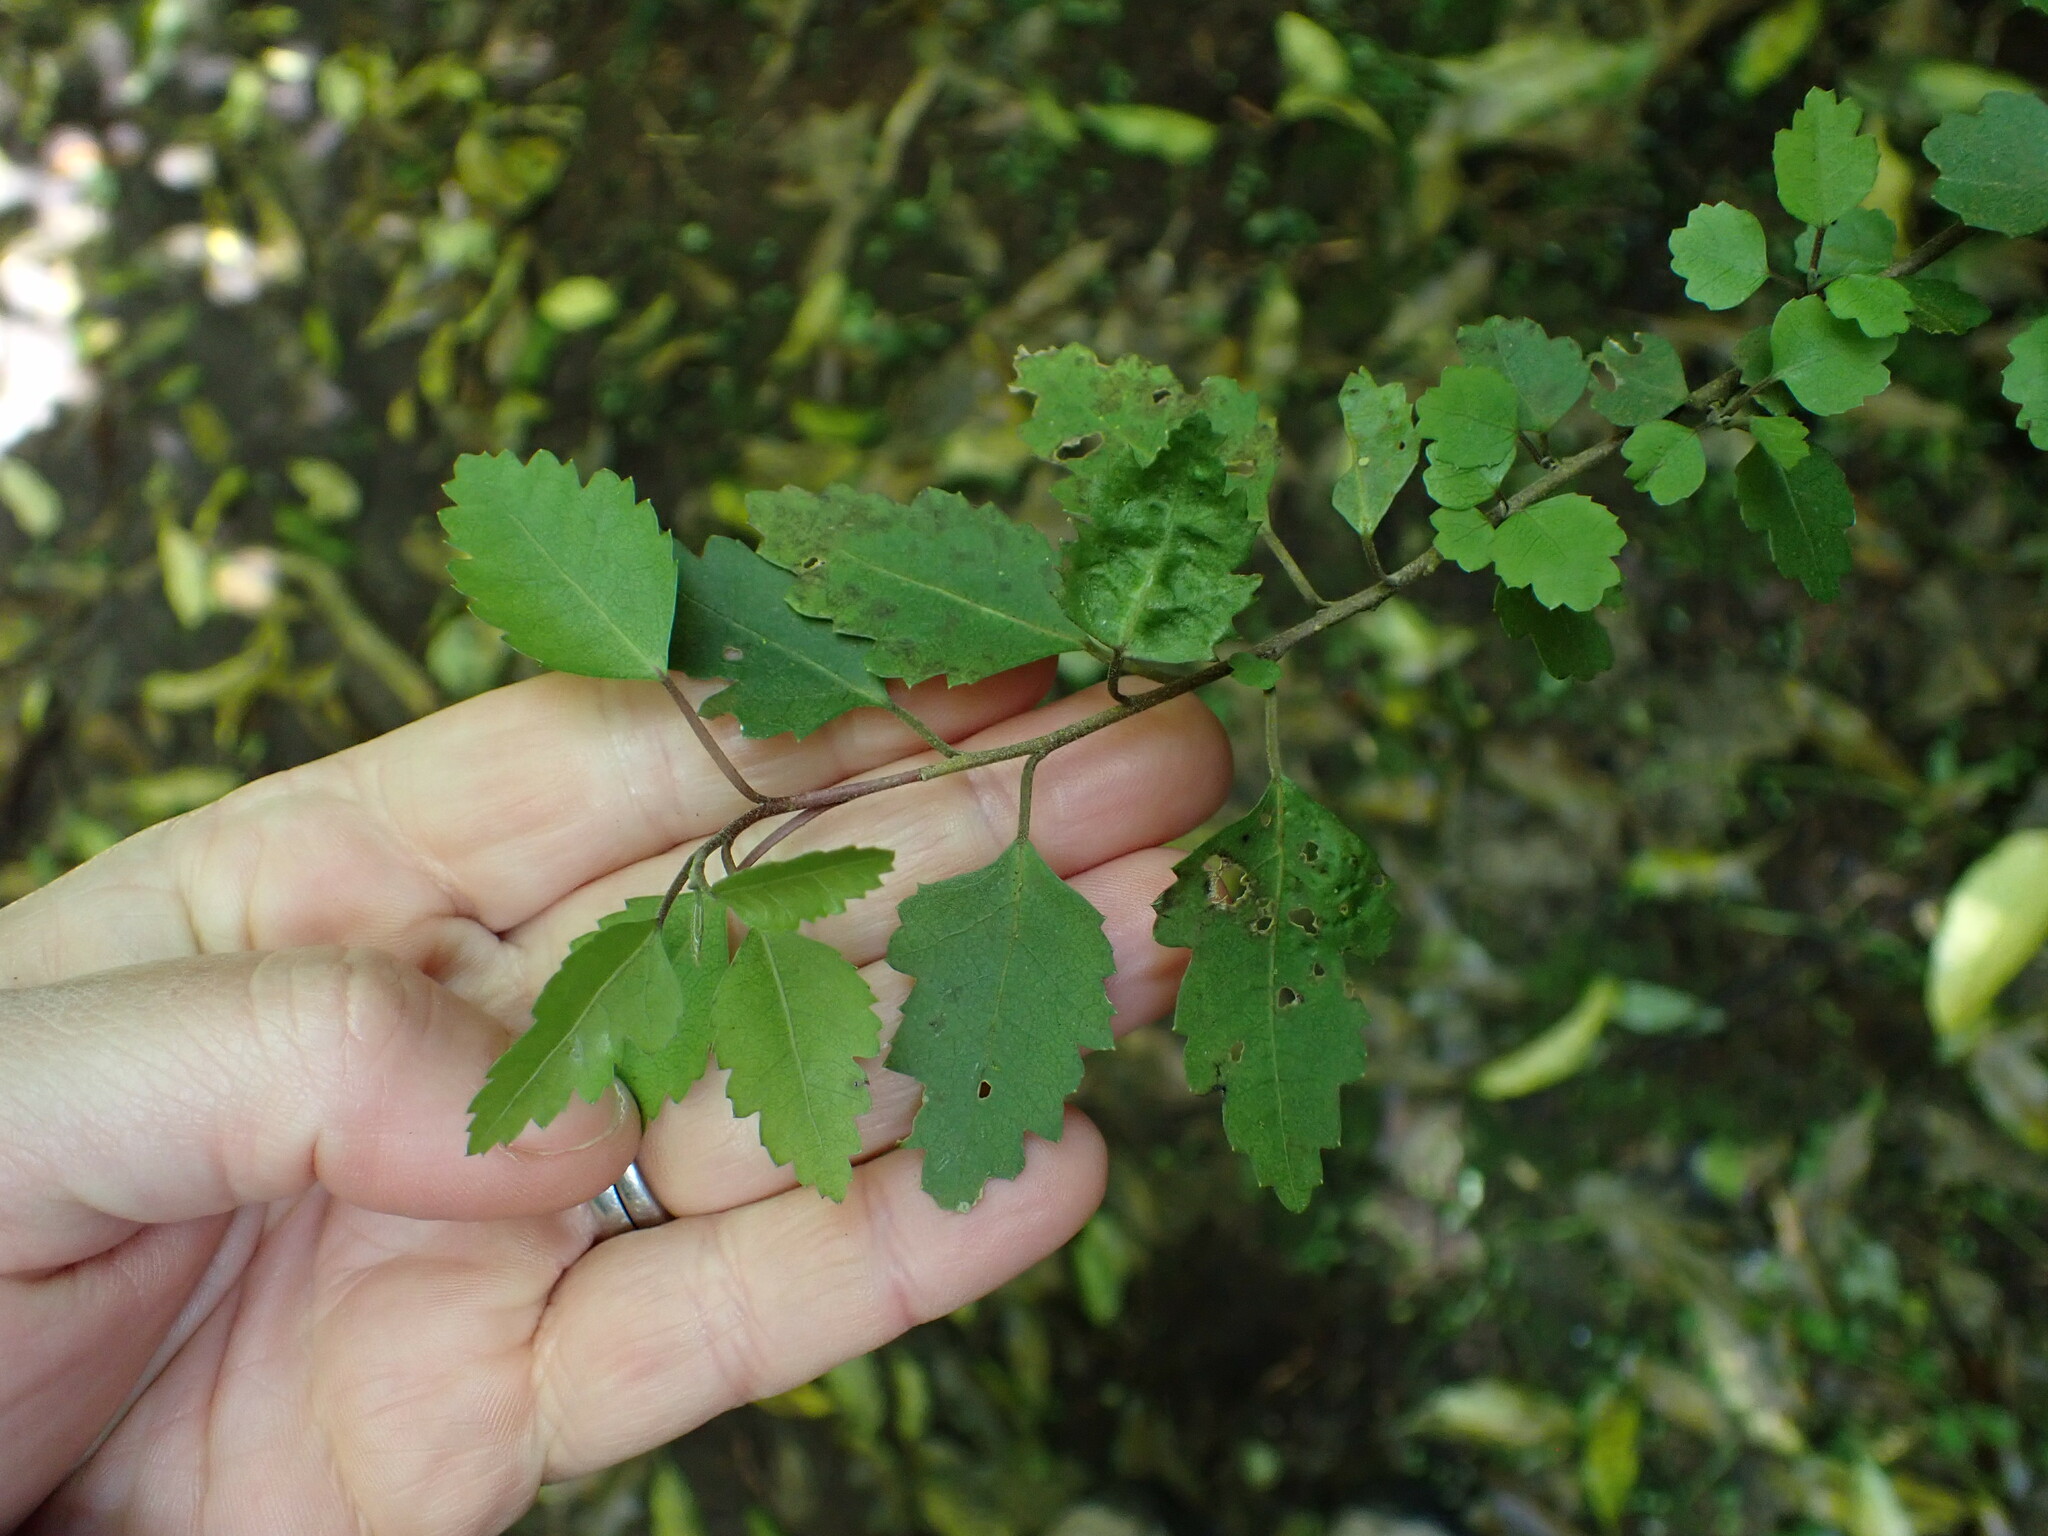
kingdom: Plantae
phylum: Tracheophyta
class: Magnoliopsida
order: Malvales
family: Malvaceae
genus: Hoheria
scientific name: Hoheria sexstylosa
